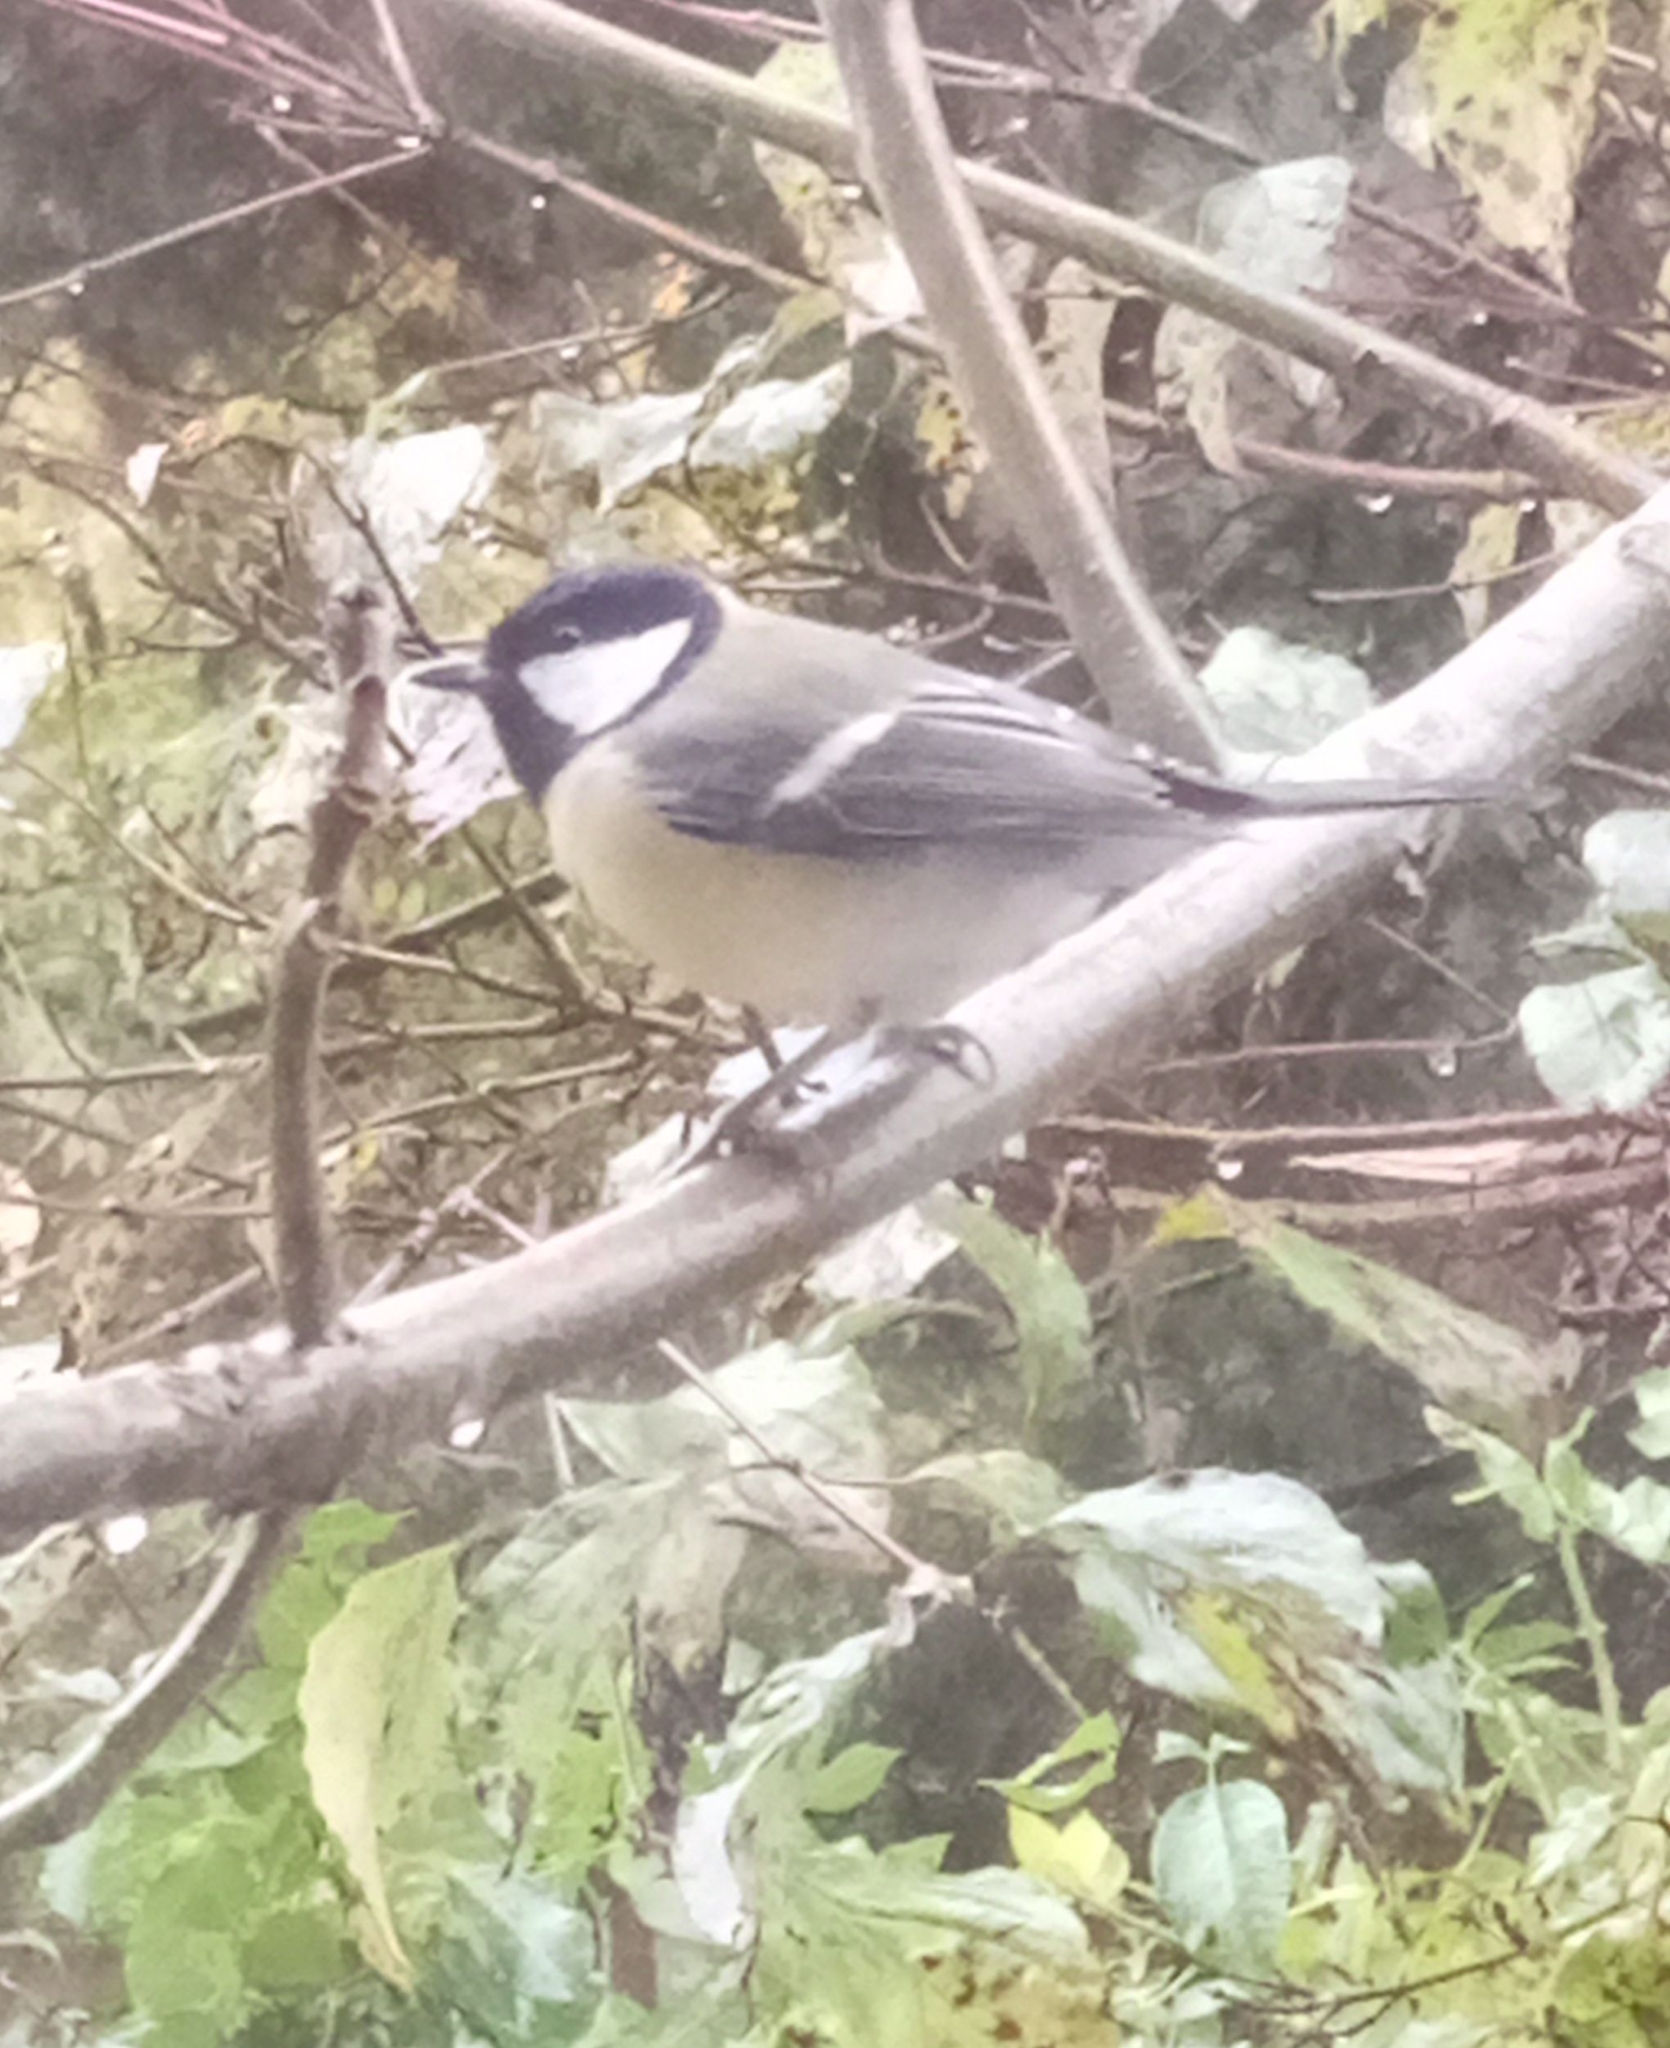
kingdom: Animalia
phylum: Chordata
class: Aves
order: Passeriformes
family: Paridae
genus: Parus
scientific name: Parus major
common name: Great tit
